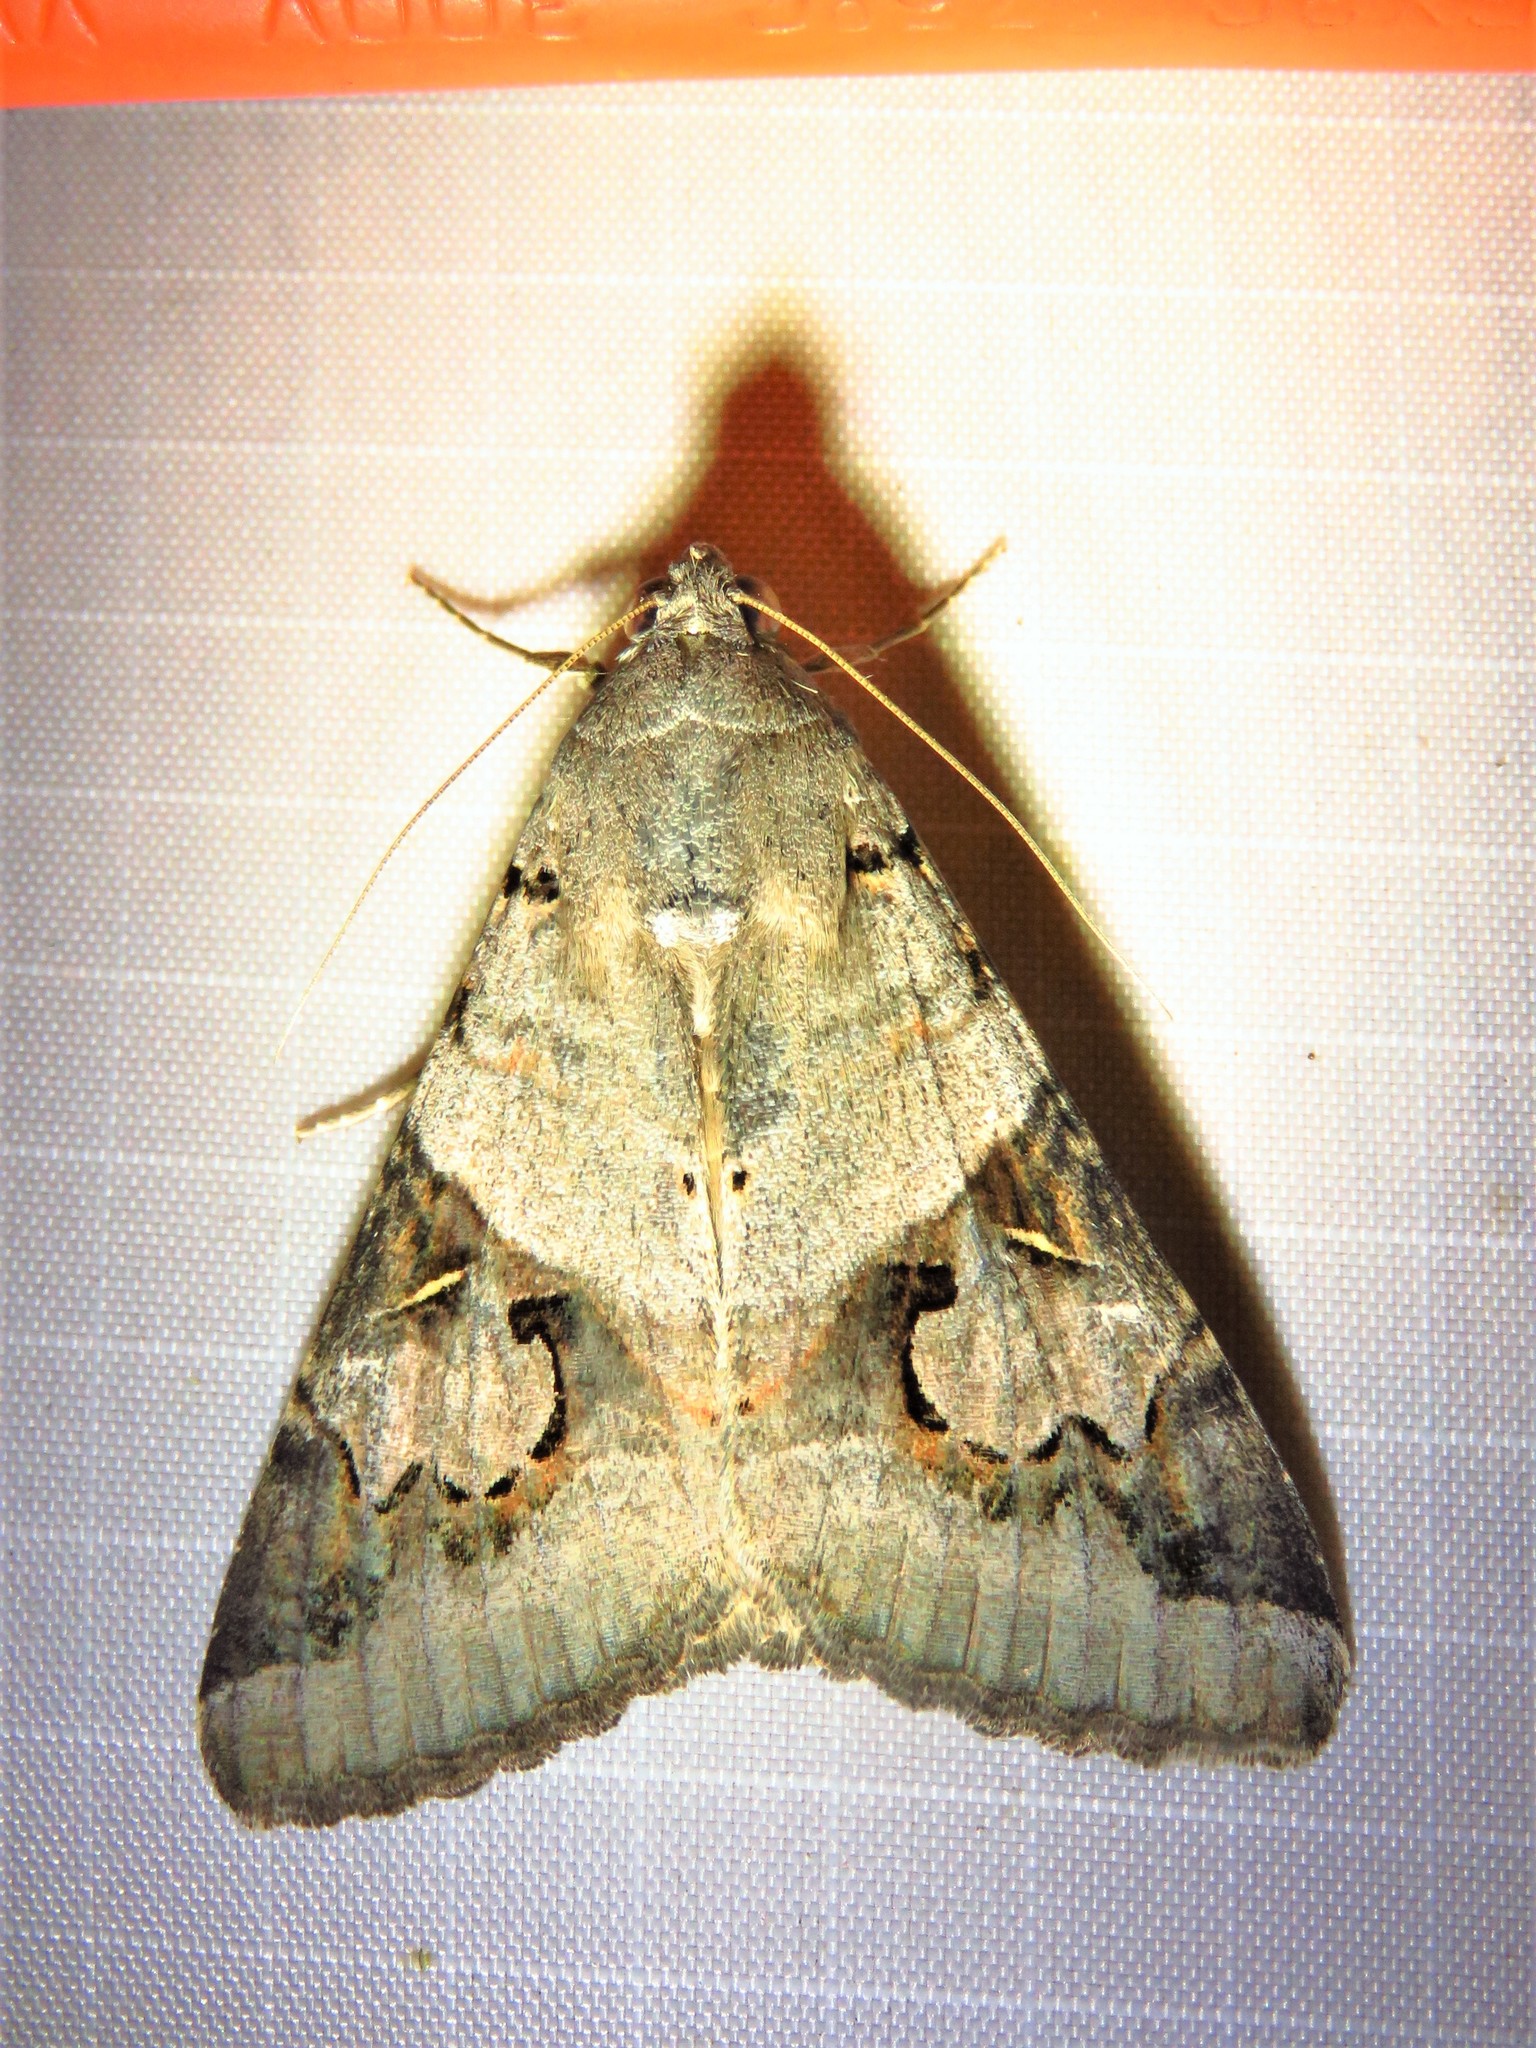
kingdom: Animalia
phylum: Arthropoda
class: Insecta
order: Lepidoptera
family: Erebidae
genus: Melipotis
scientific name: Melipotis indomita
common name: Moth
